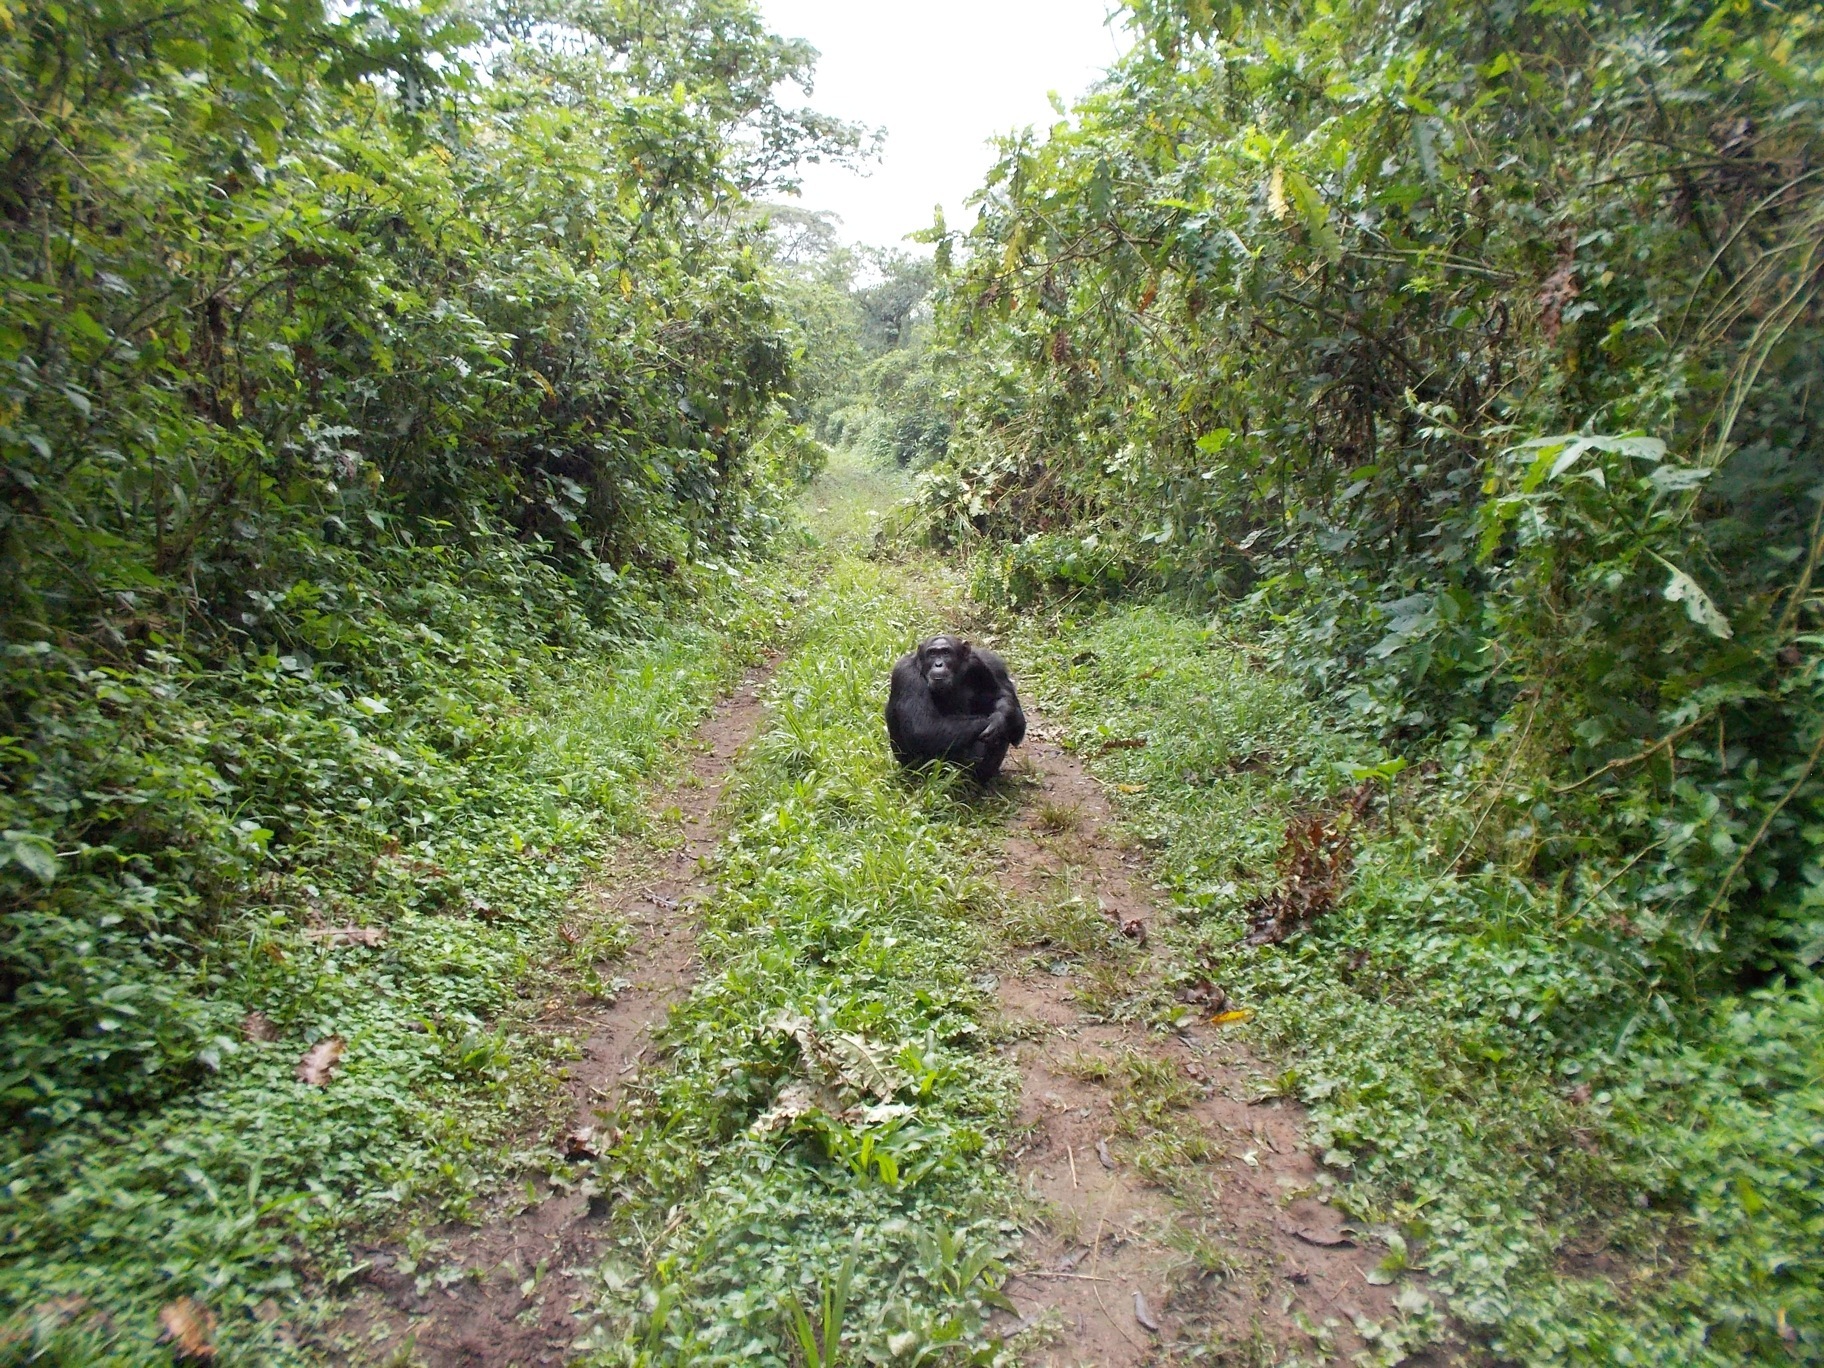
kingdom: Animalia
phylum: Chordata
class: Mammalia
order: Primates
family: Hominidae
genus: Pan
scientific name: Pan troglodytes
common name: Chimpanzee
